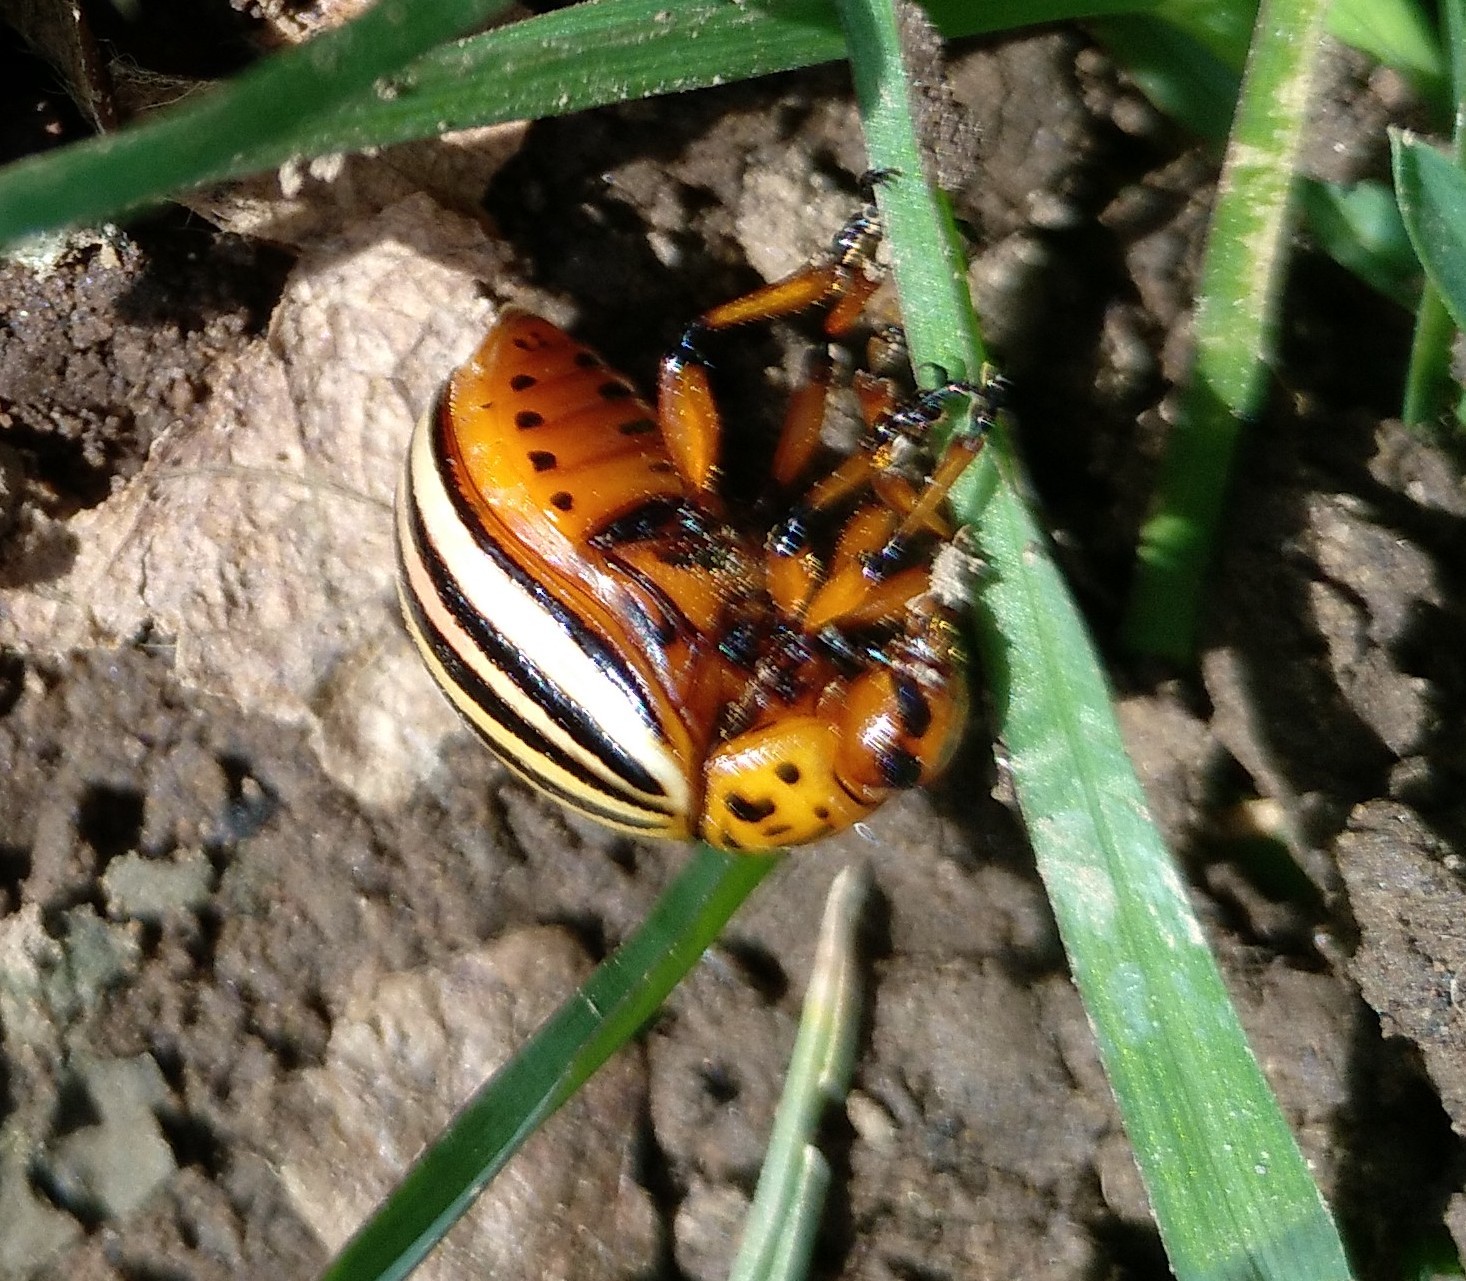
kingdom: Animalia
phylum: Arthropoda
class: Insecta
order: Coleoptera
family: Chrysomelidae
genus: Leptinotarsa
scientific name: Leptinotarsa decemlineata
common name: Colorado potato beetle
